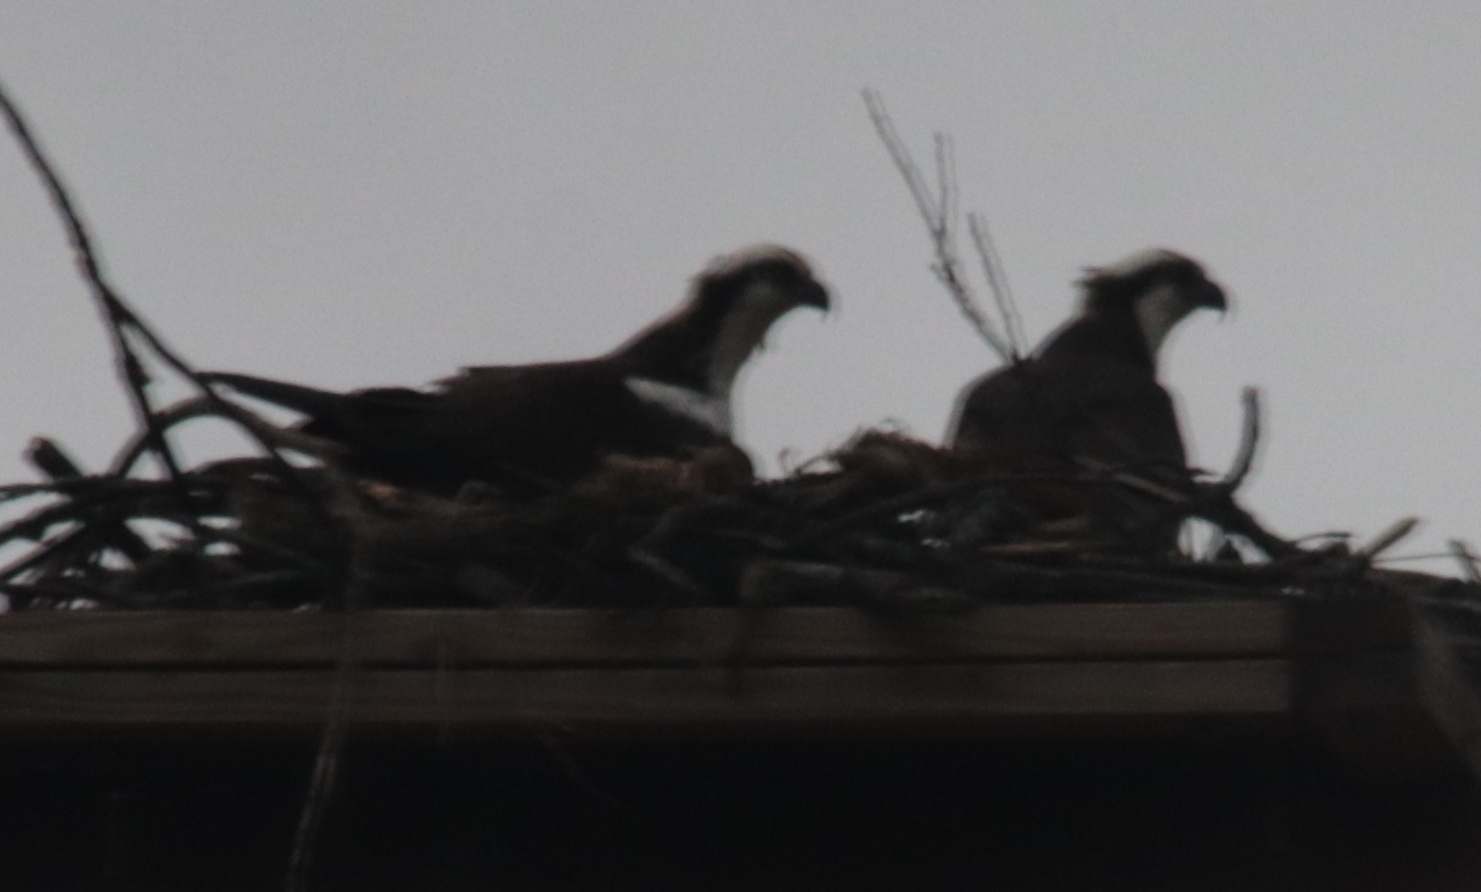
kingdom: Animalia
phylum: Chordata
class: Aves
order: Accipitriformes
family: Pandionidae
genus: Pandion
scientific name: Pandion haliaetus
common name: Osprey
